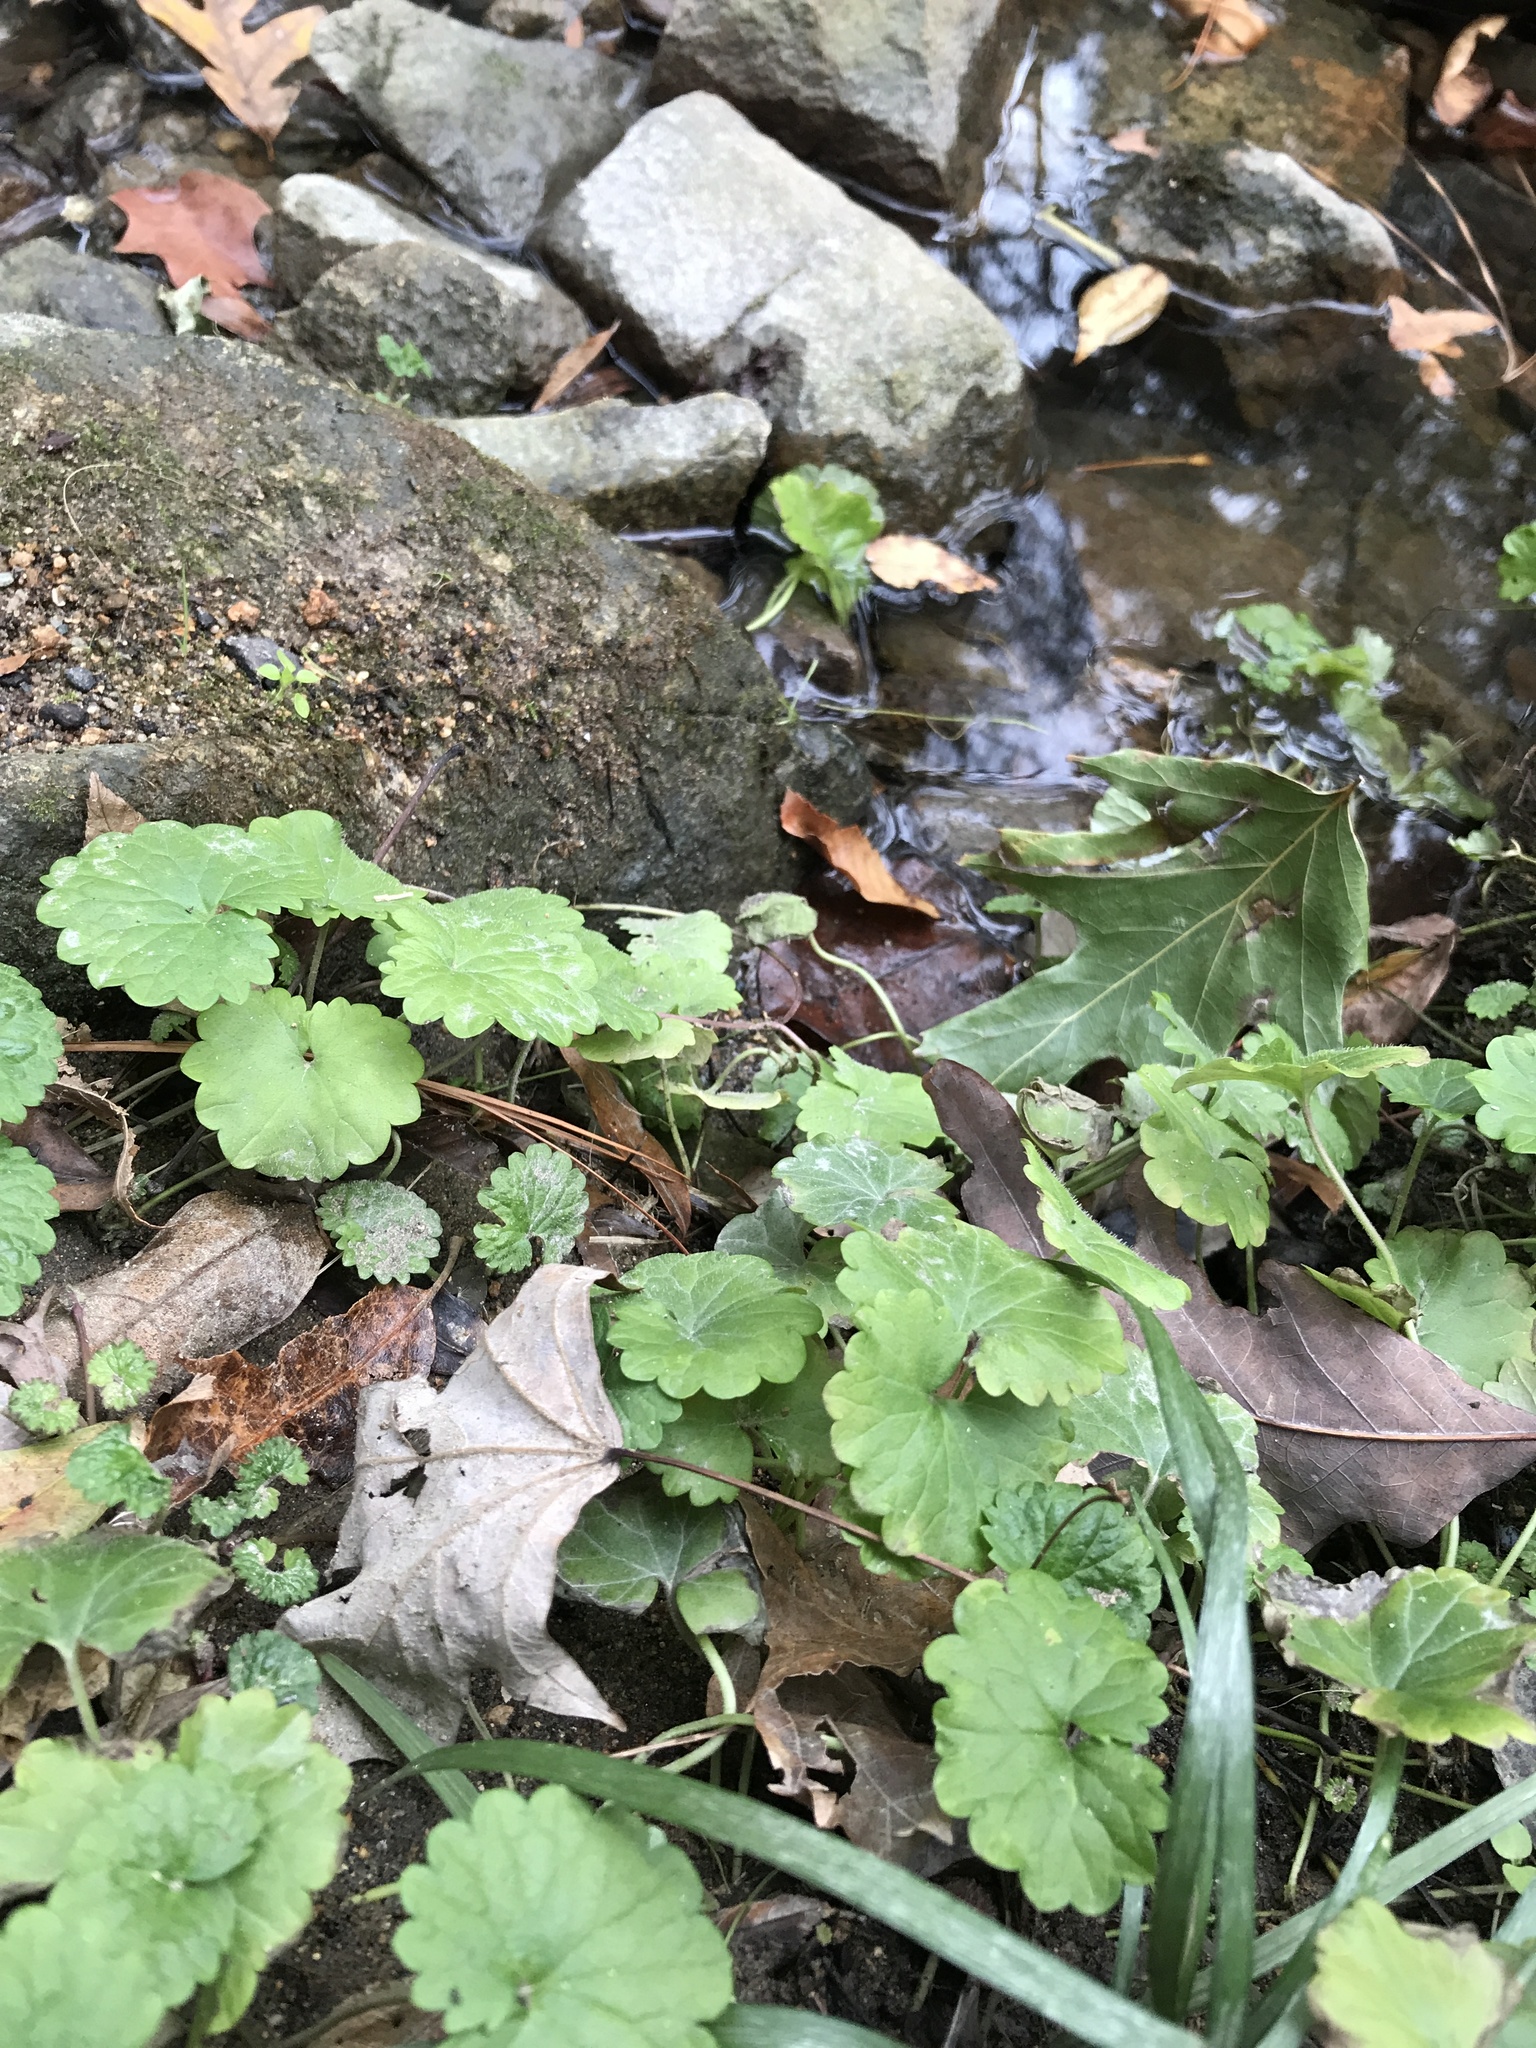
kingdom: Plantae
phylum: Tracheophyta
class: Magnoliopsida
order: Lamiales
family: Lamiaceae
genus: Glechoma
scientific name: Glechoma hederacea
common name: Ground ivy
